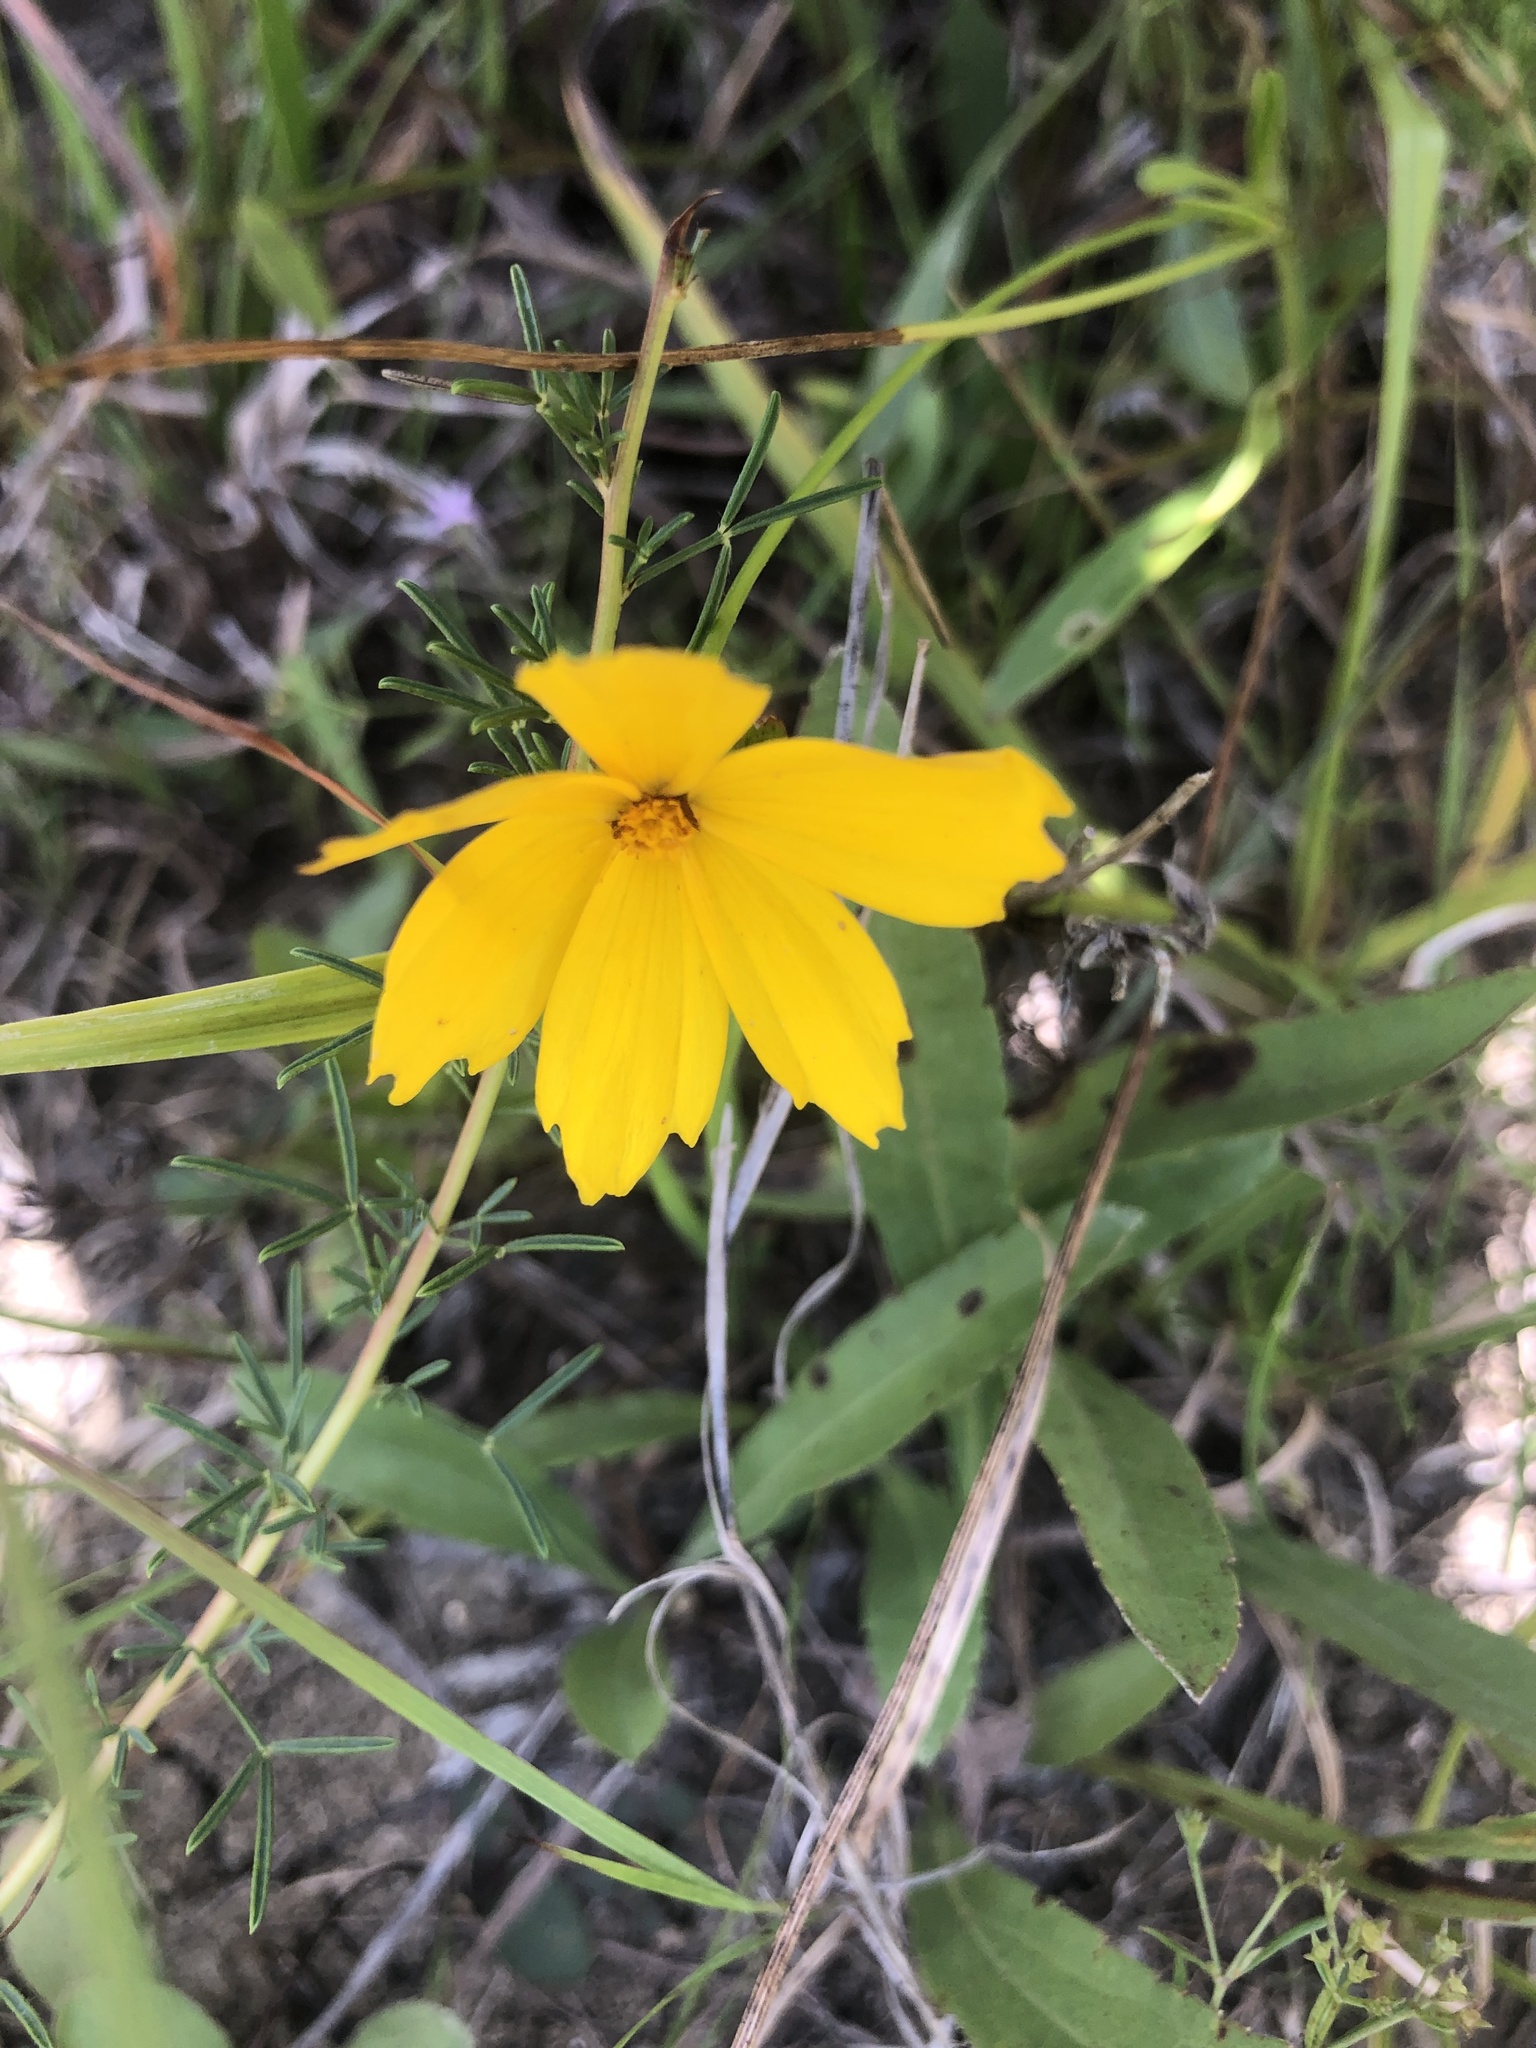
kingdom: Plantae
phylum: Tracheophyta
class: Magnoliopsida
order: Asterales
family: Asteraceae
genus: Coreopsis
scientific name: Coreopsis lanceolata
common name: Garden coreopsis
